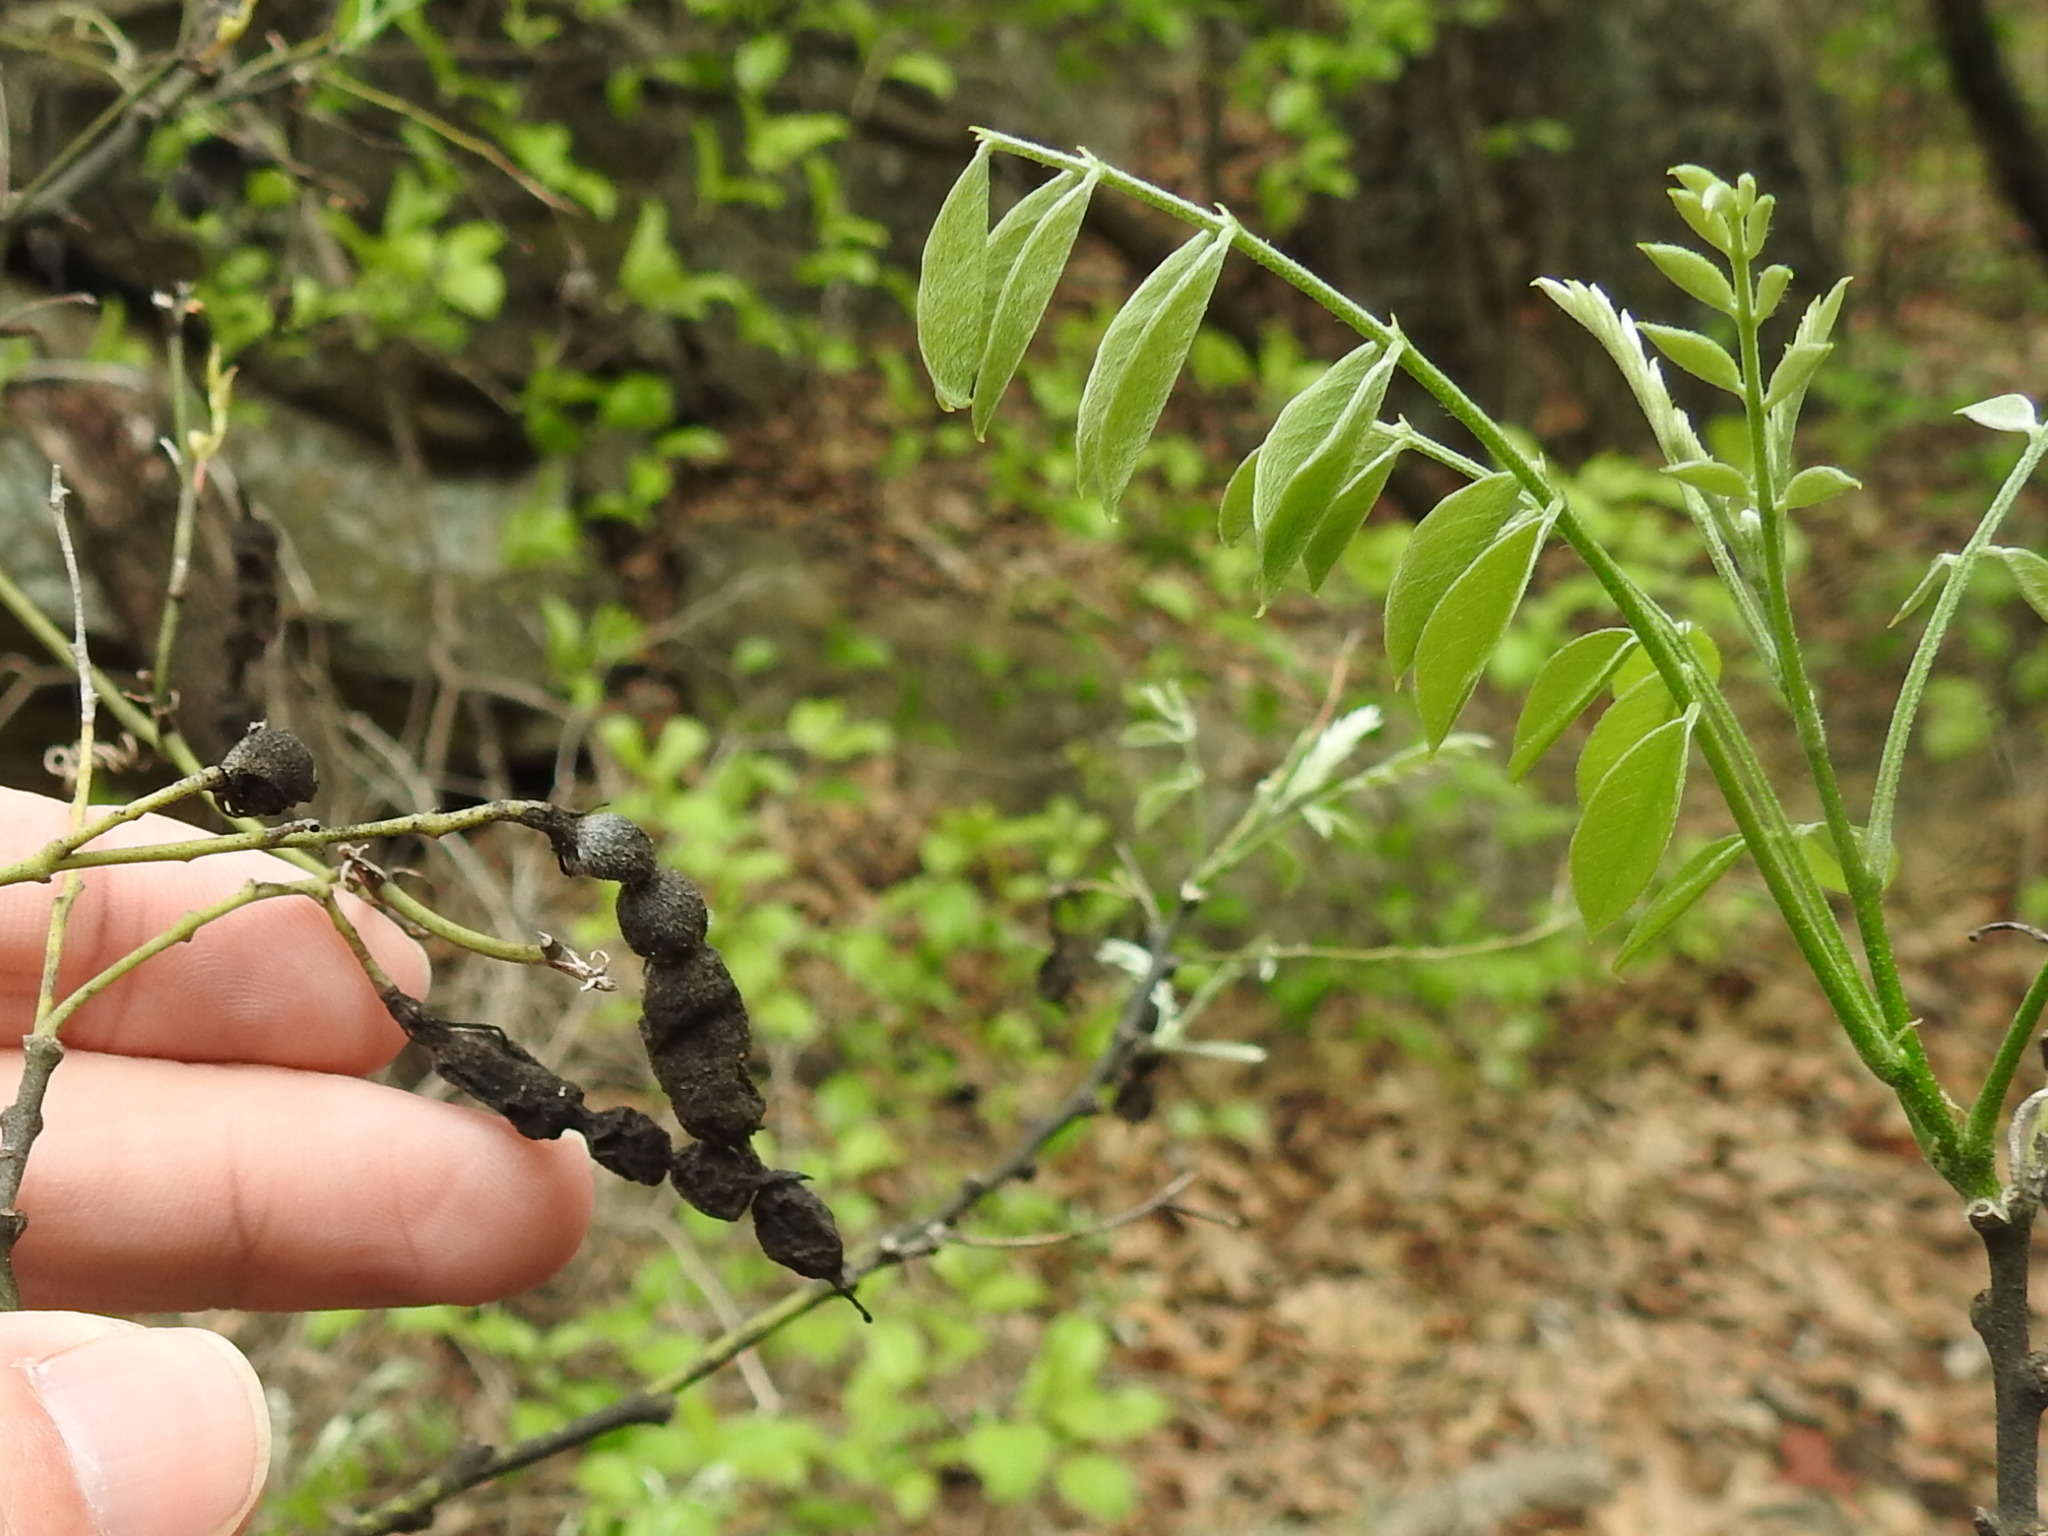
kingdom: Plantae
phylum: Tracheophyta
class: Magnoliopsida
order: Fabales
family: Fabaceae
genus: Styphnolobium
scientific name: Styphnolobium affine
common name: Texas sophora
